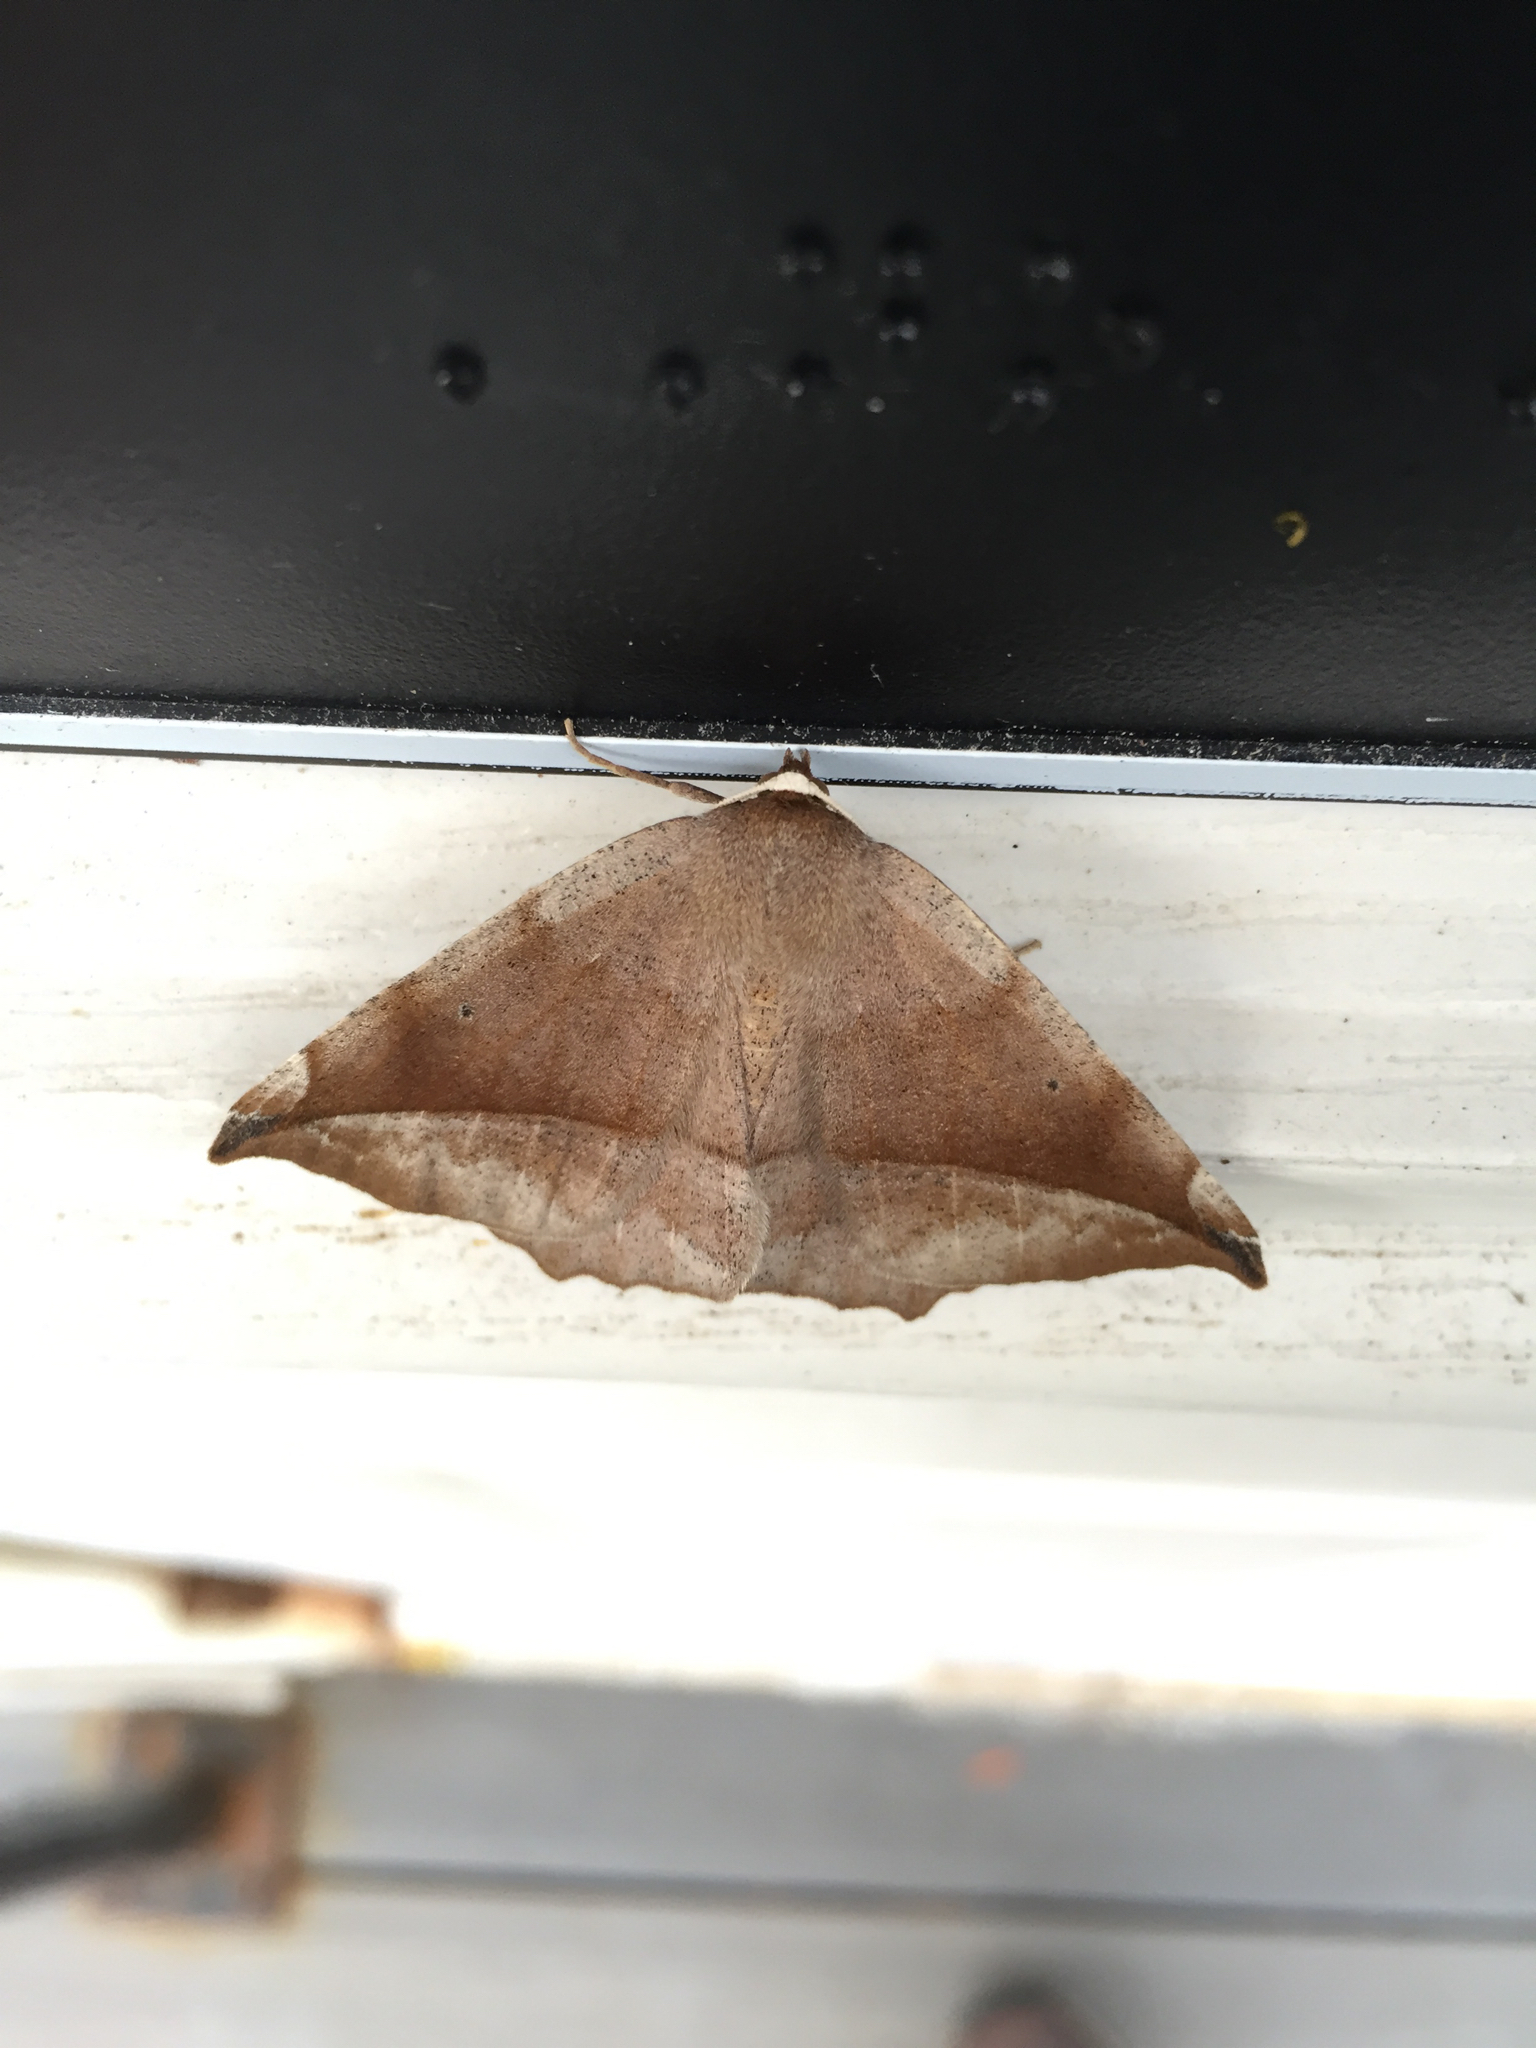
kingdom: Animalia
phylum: Arthropoda
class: Insecta
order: Lepidoptera
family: Geometridae
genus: Eutrapela
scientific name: Eutrapela clemataria
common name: Curved-toothed geometer
